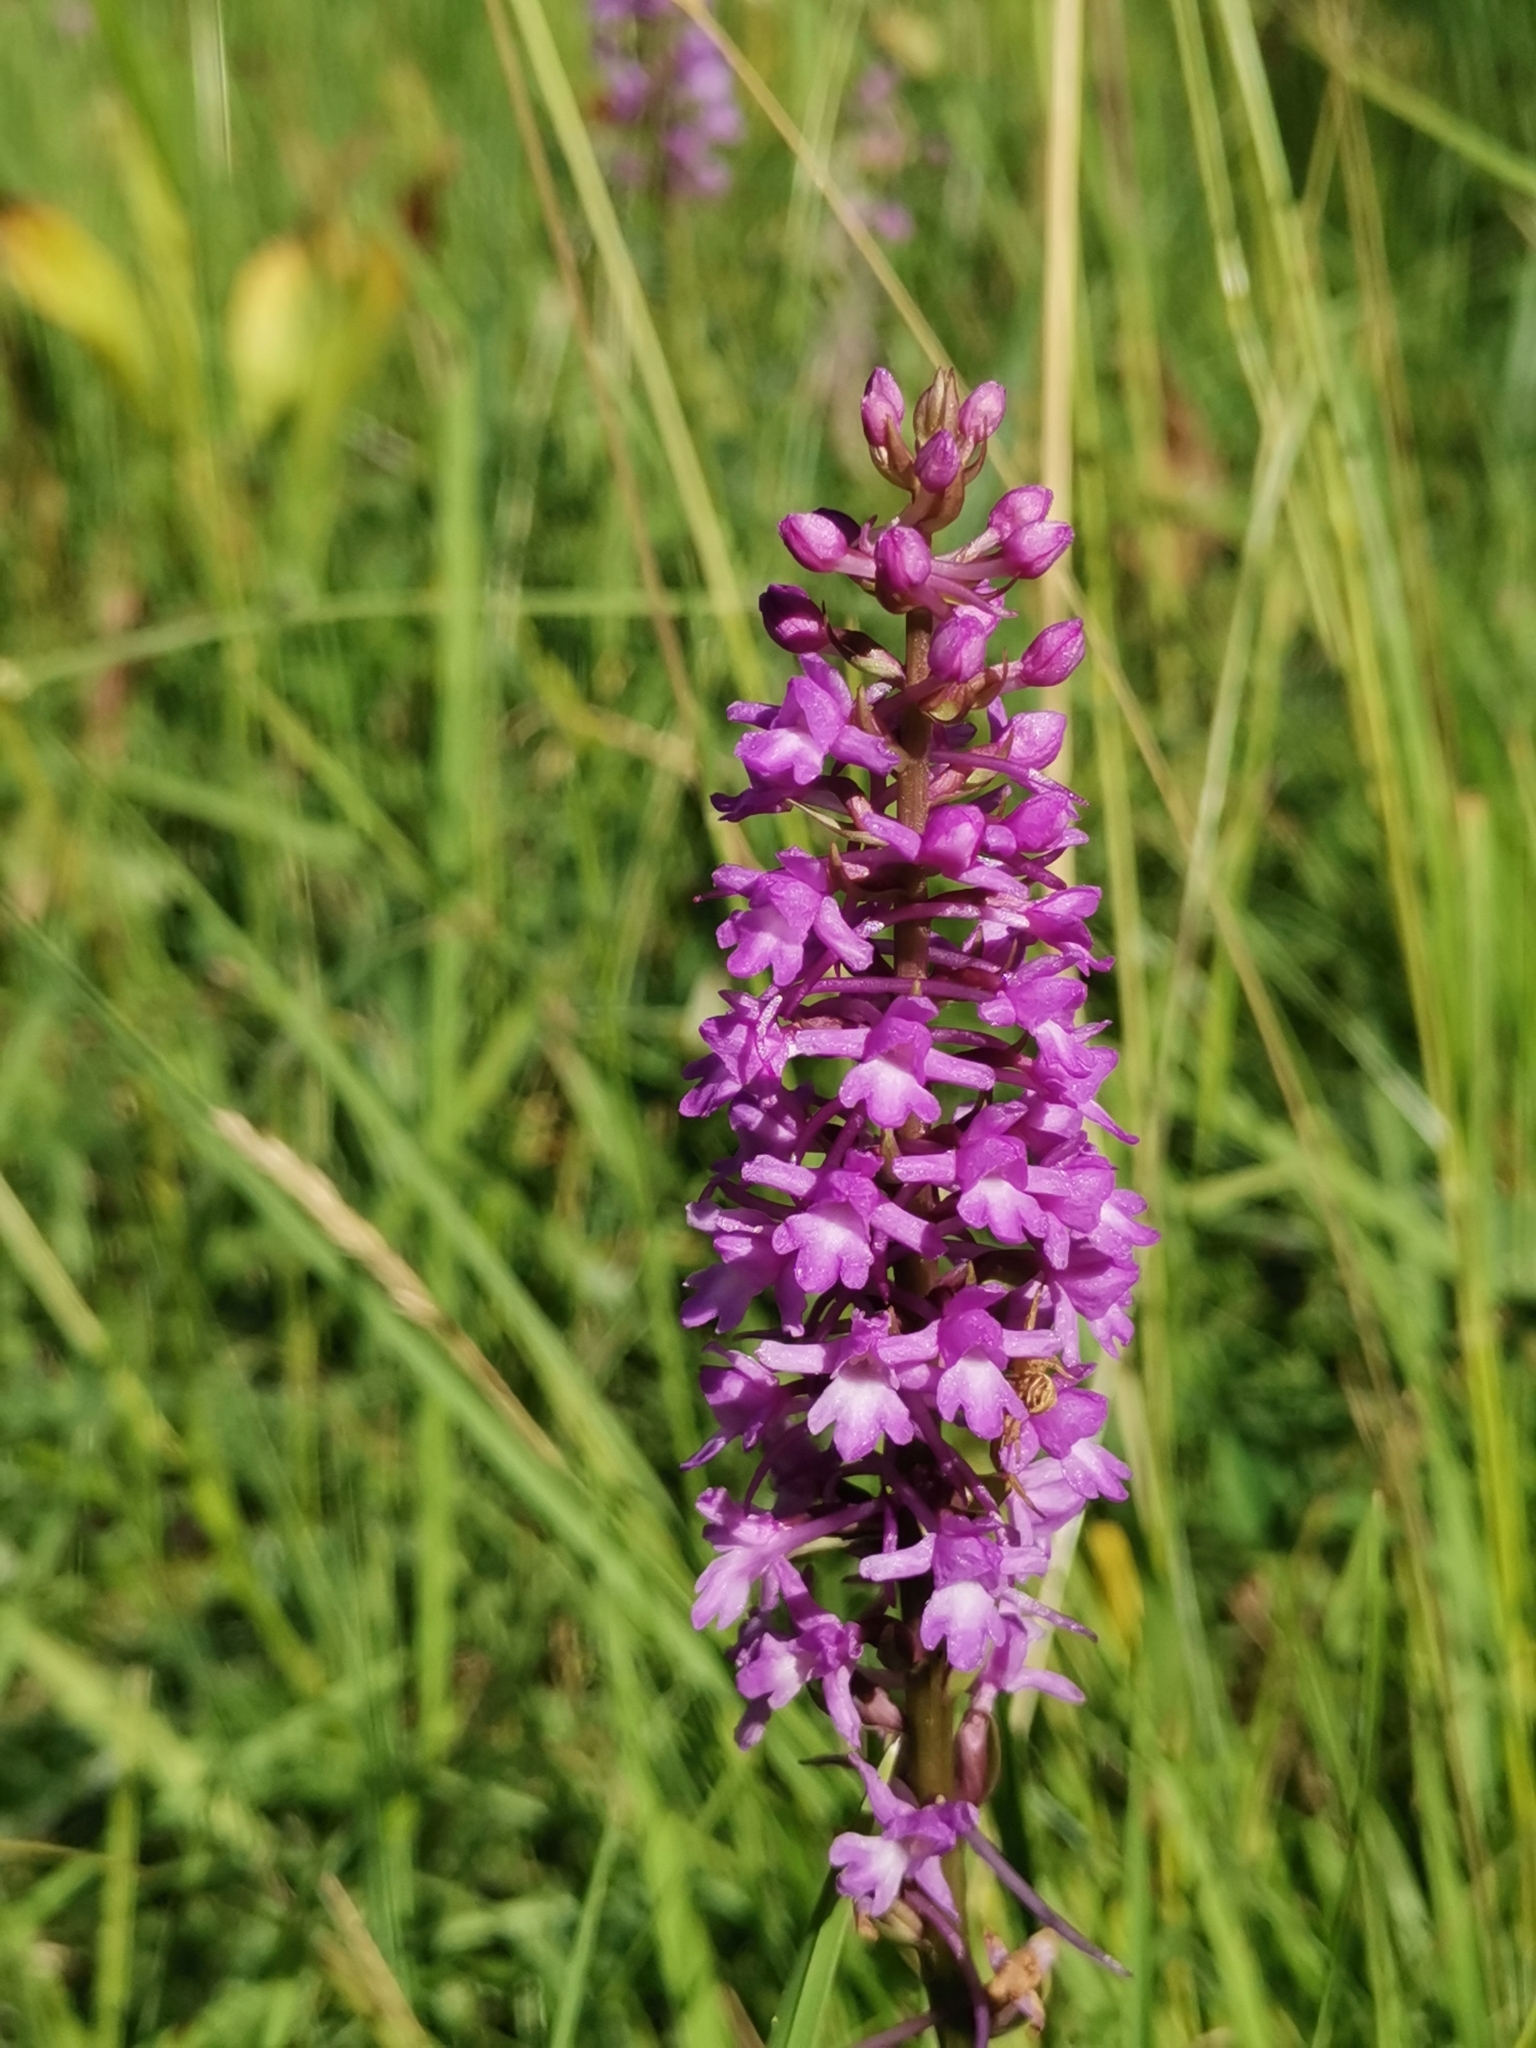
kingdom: Plantae
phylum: Tracheophyta
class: Liliopsida
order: Asparagales
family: Orchidaceae
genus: Gymnadenia
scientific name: Gymnadenia conopsea
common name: Fragrant orchid
